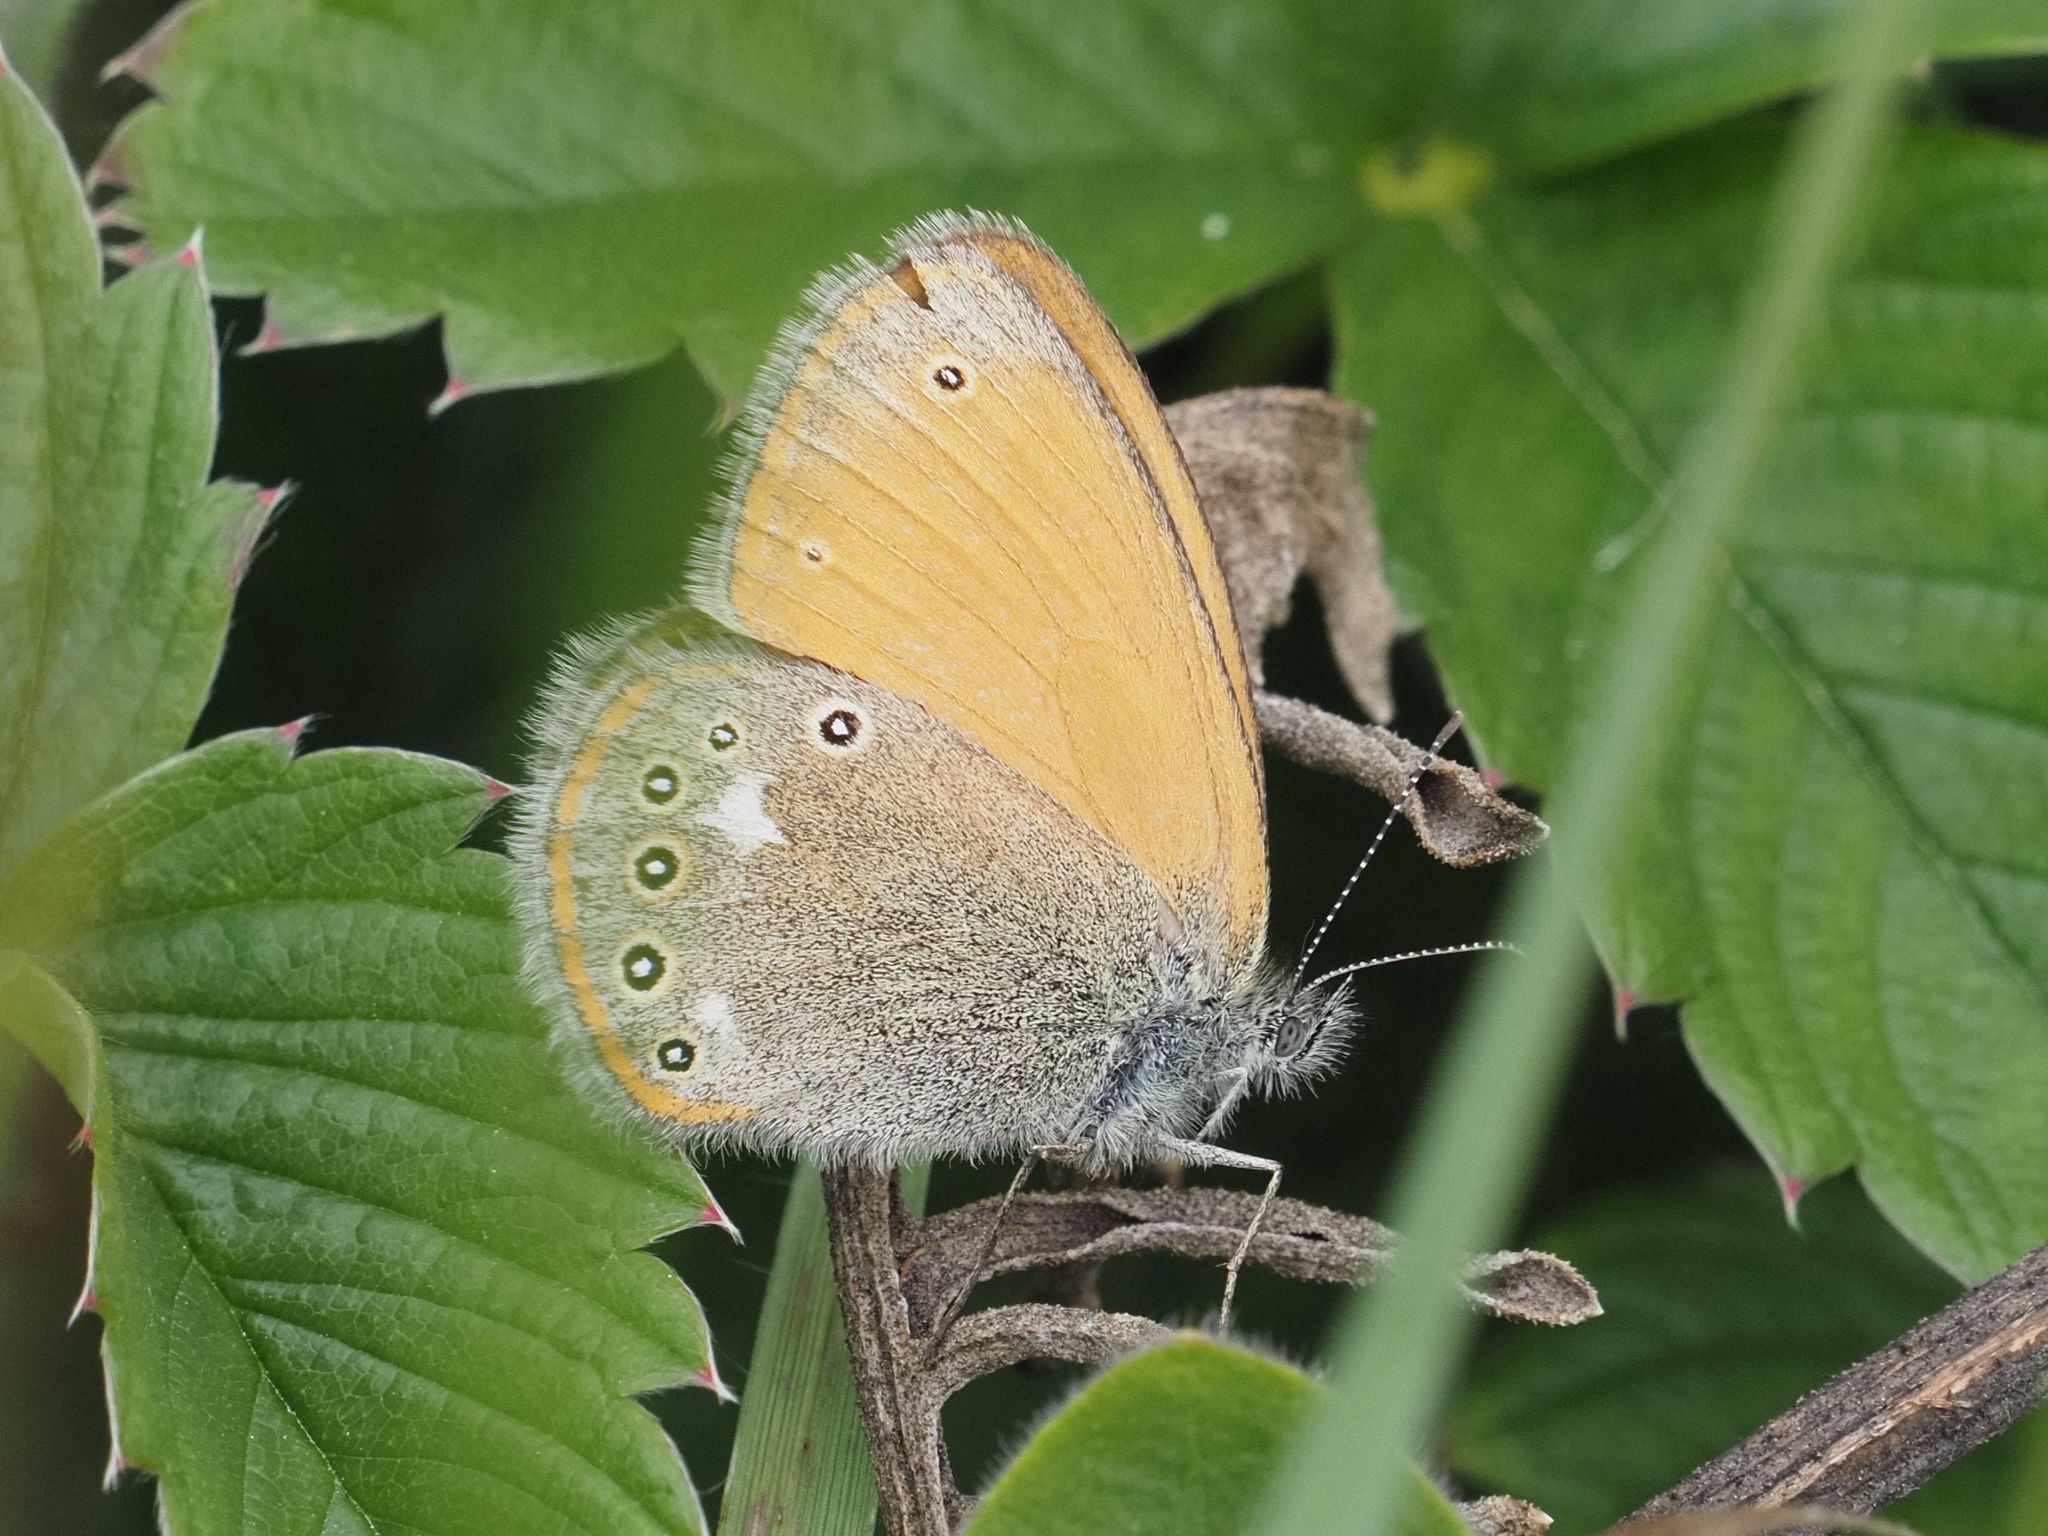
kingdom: Animalia
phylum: Arthropoda
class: Insecta
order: Lepidoptera
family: Nymphalidae
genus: Coenonympha
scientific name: Coenonympha iphis
